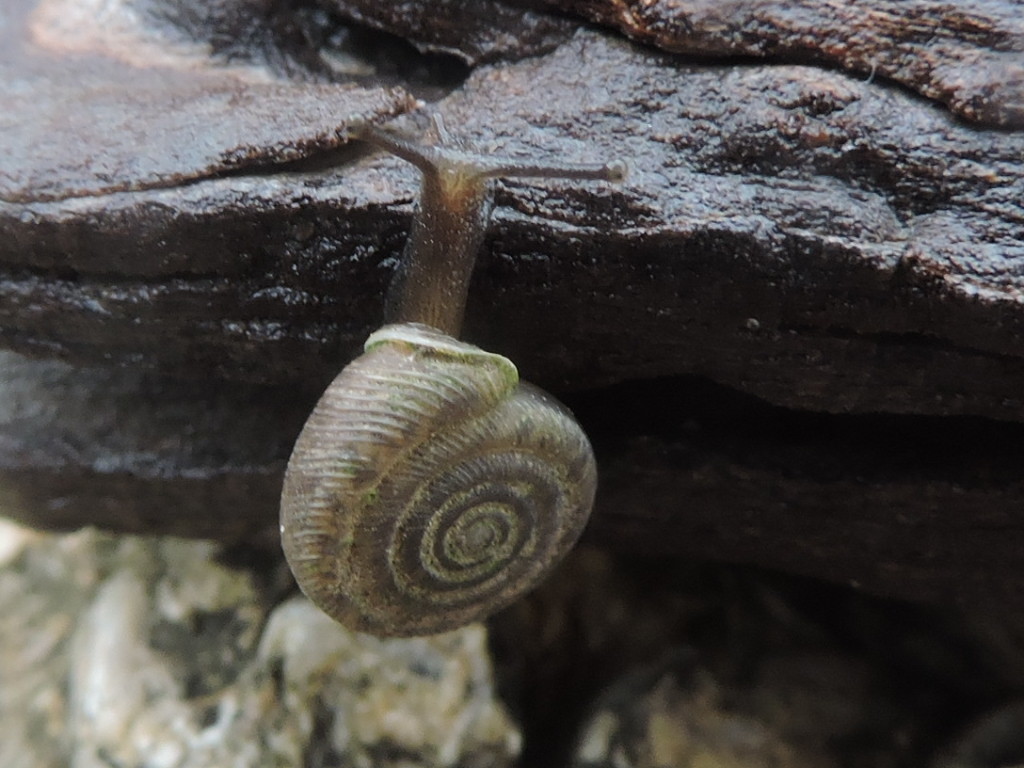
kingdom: Animalia
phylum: Mollusca
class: Gastropoda
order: Stylommatophora
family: Polygyridae
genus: Polygyra
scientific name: Polygyra cereolus
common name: Southern flatcone snail
